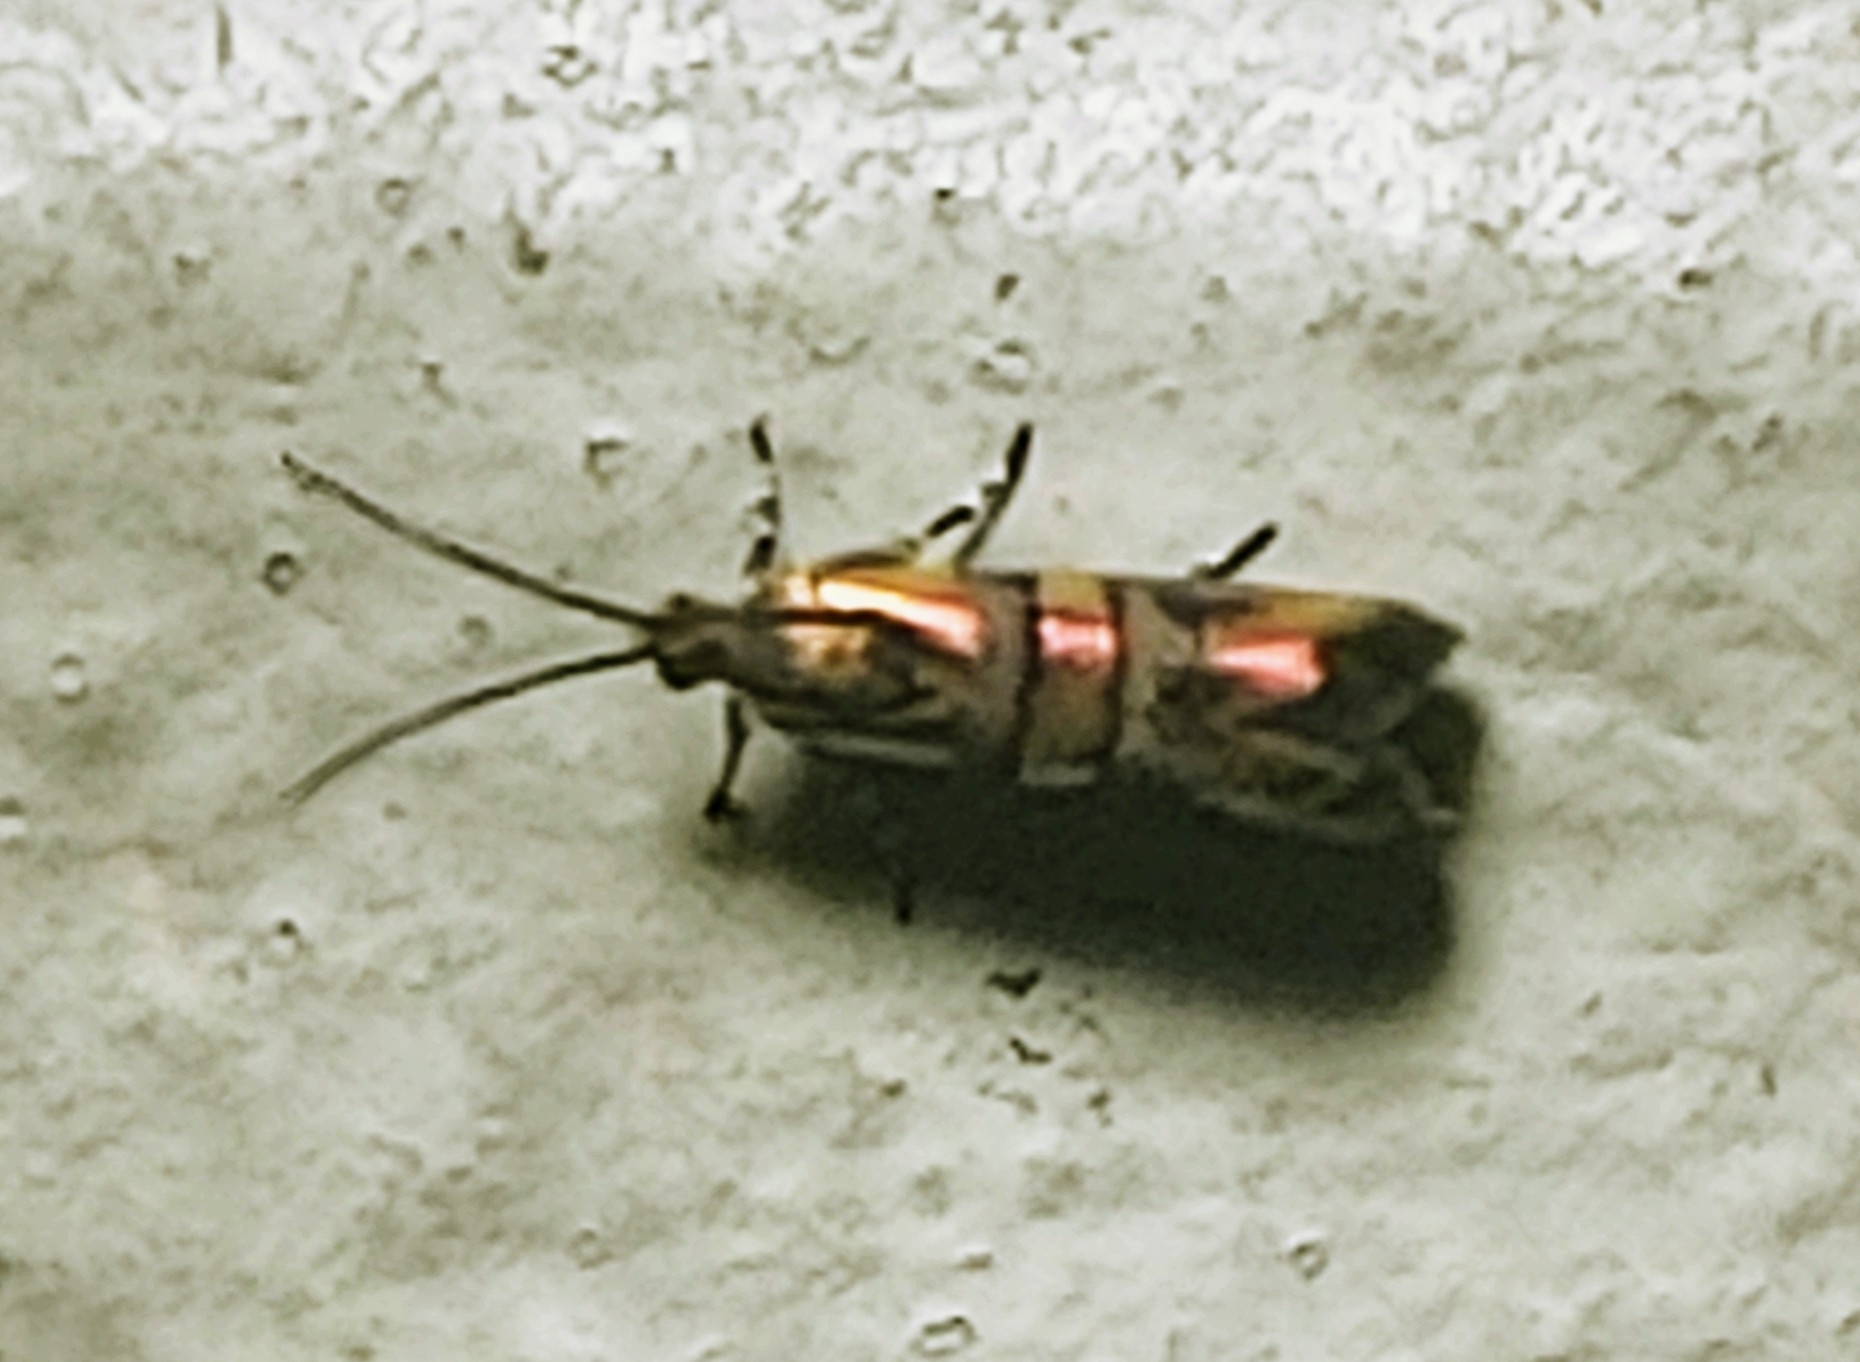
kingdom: Animalia
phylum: Arthropoda
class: Insecta
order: Lepidoptera
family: Choreutidae
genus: Tortyra
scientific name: Tortyra slossonia
